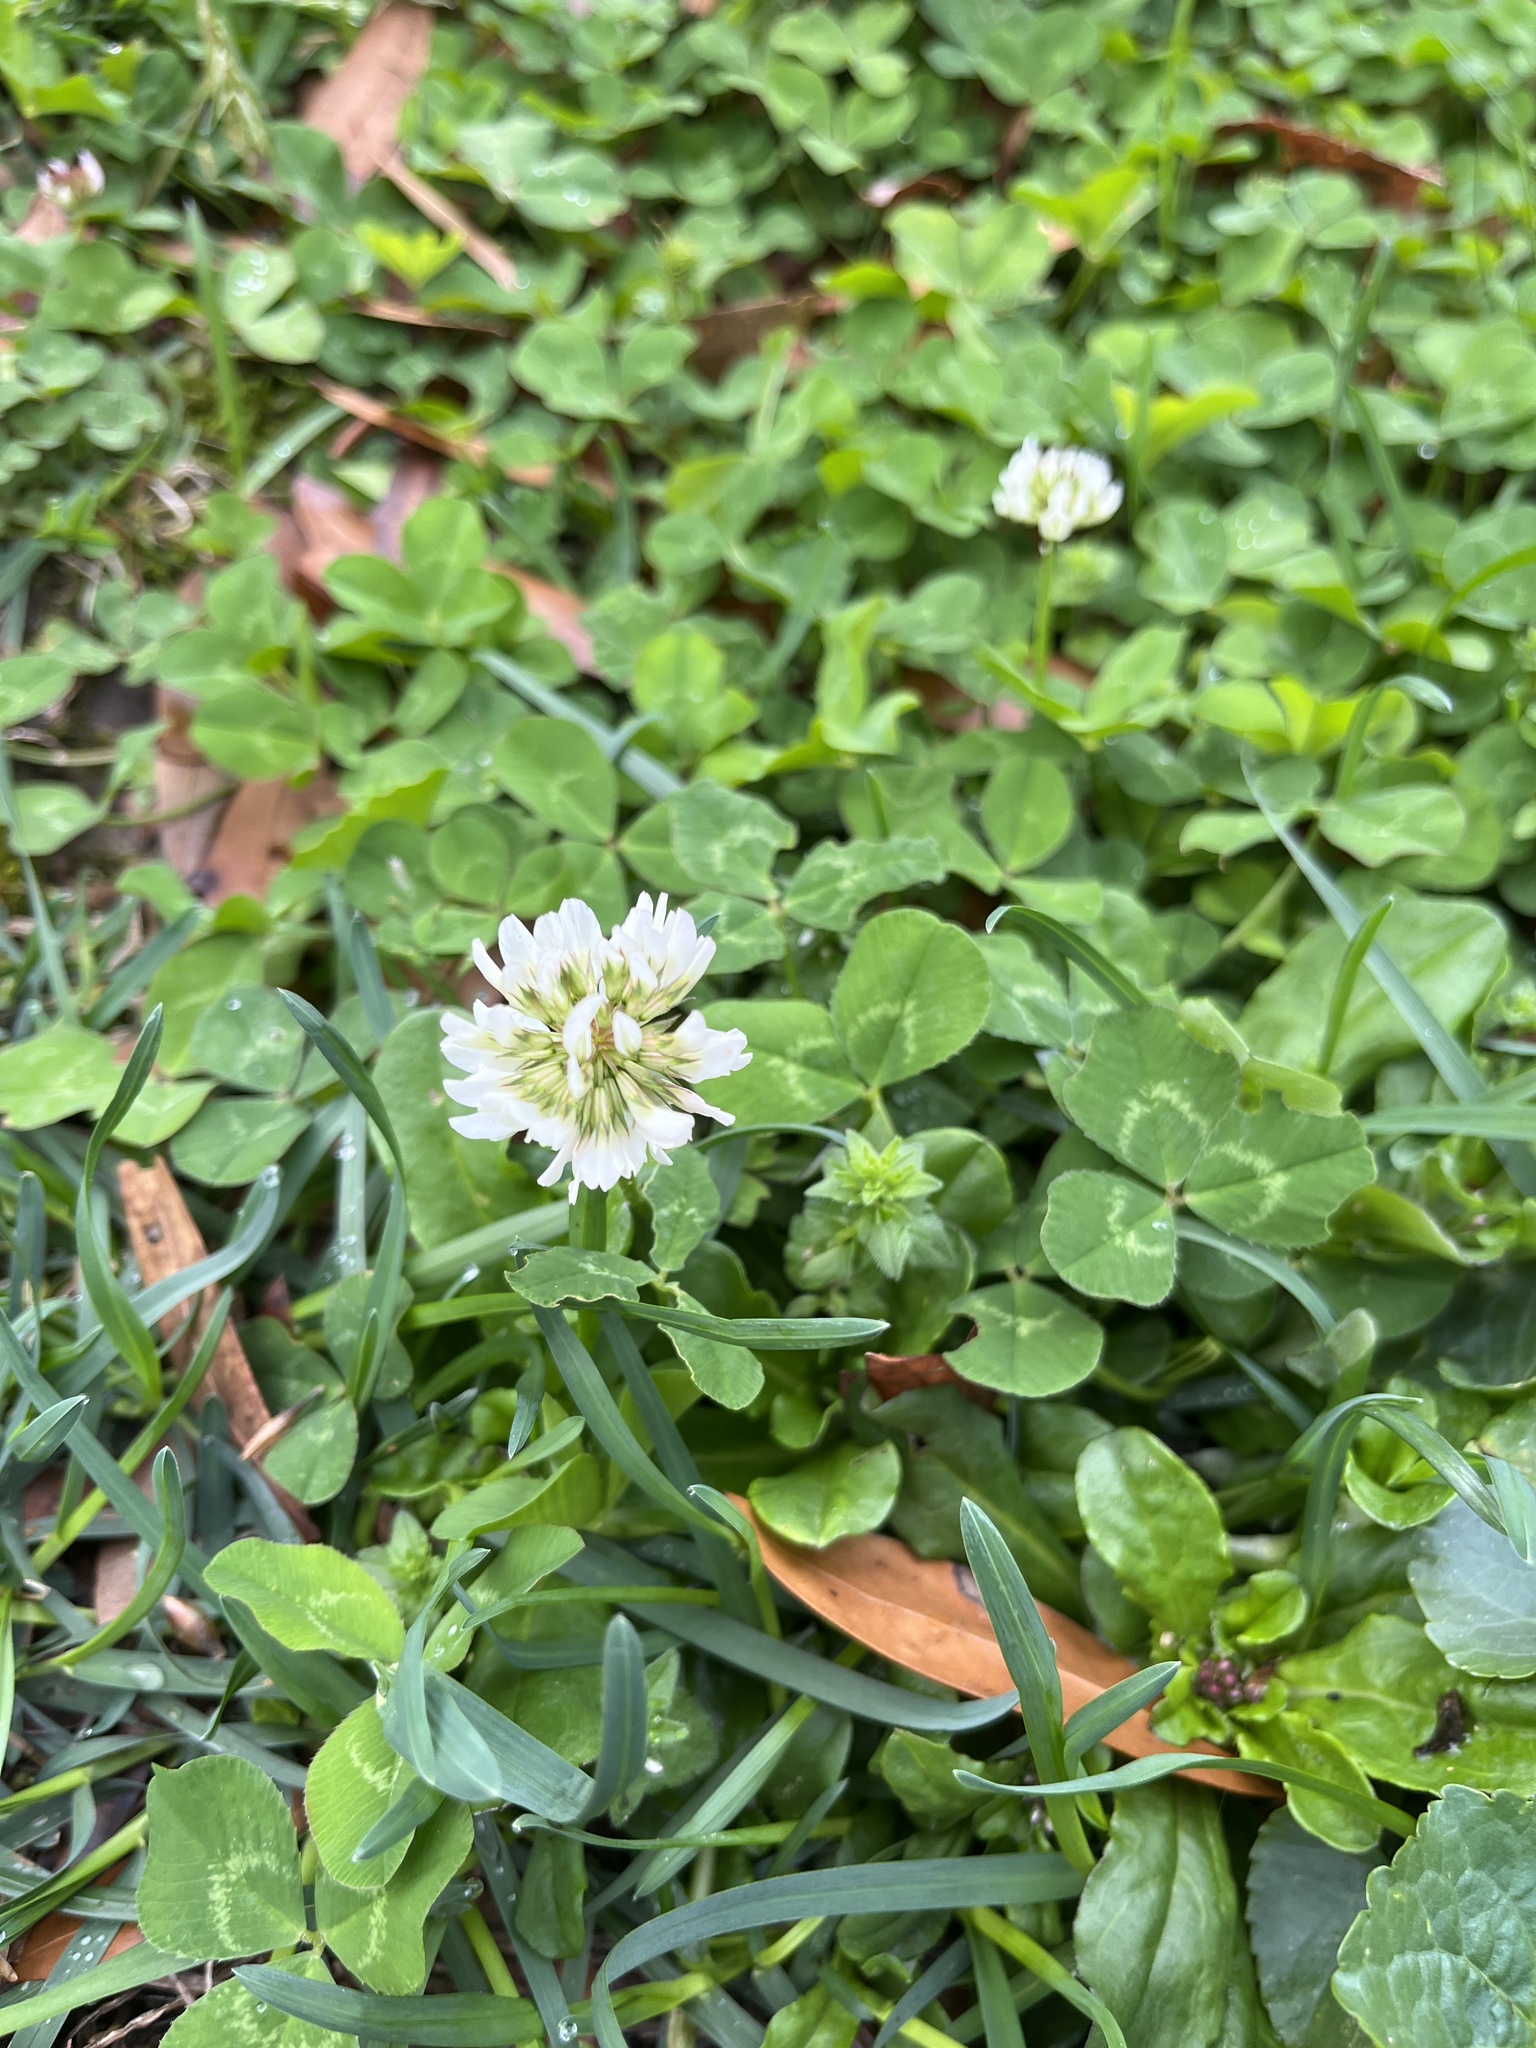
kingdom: Plantae
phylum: Tracheophyta
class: Magnoliopsida
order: Fabales
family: Fabaceae
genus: Trifolium
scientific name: Trifolium repens
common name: White clover
